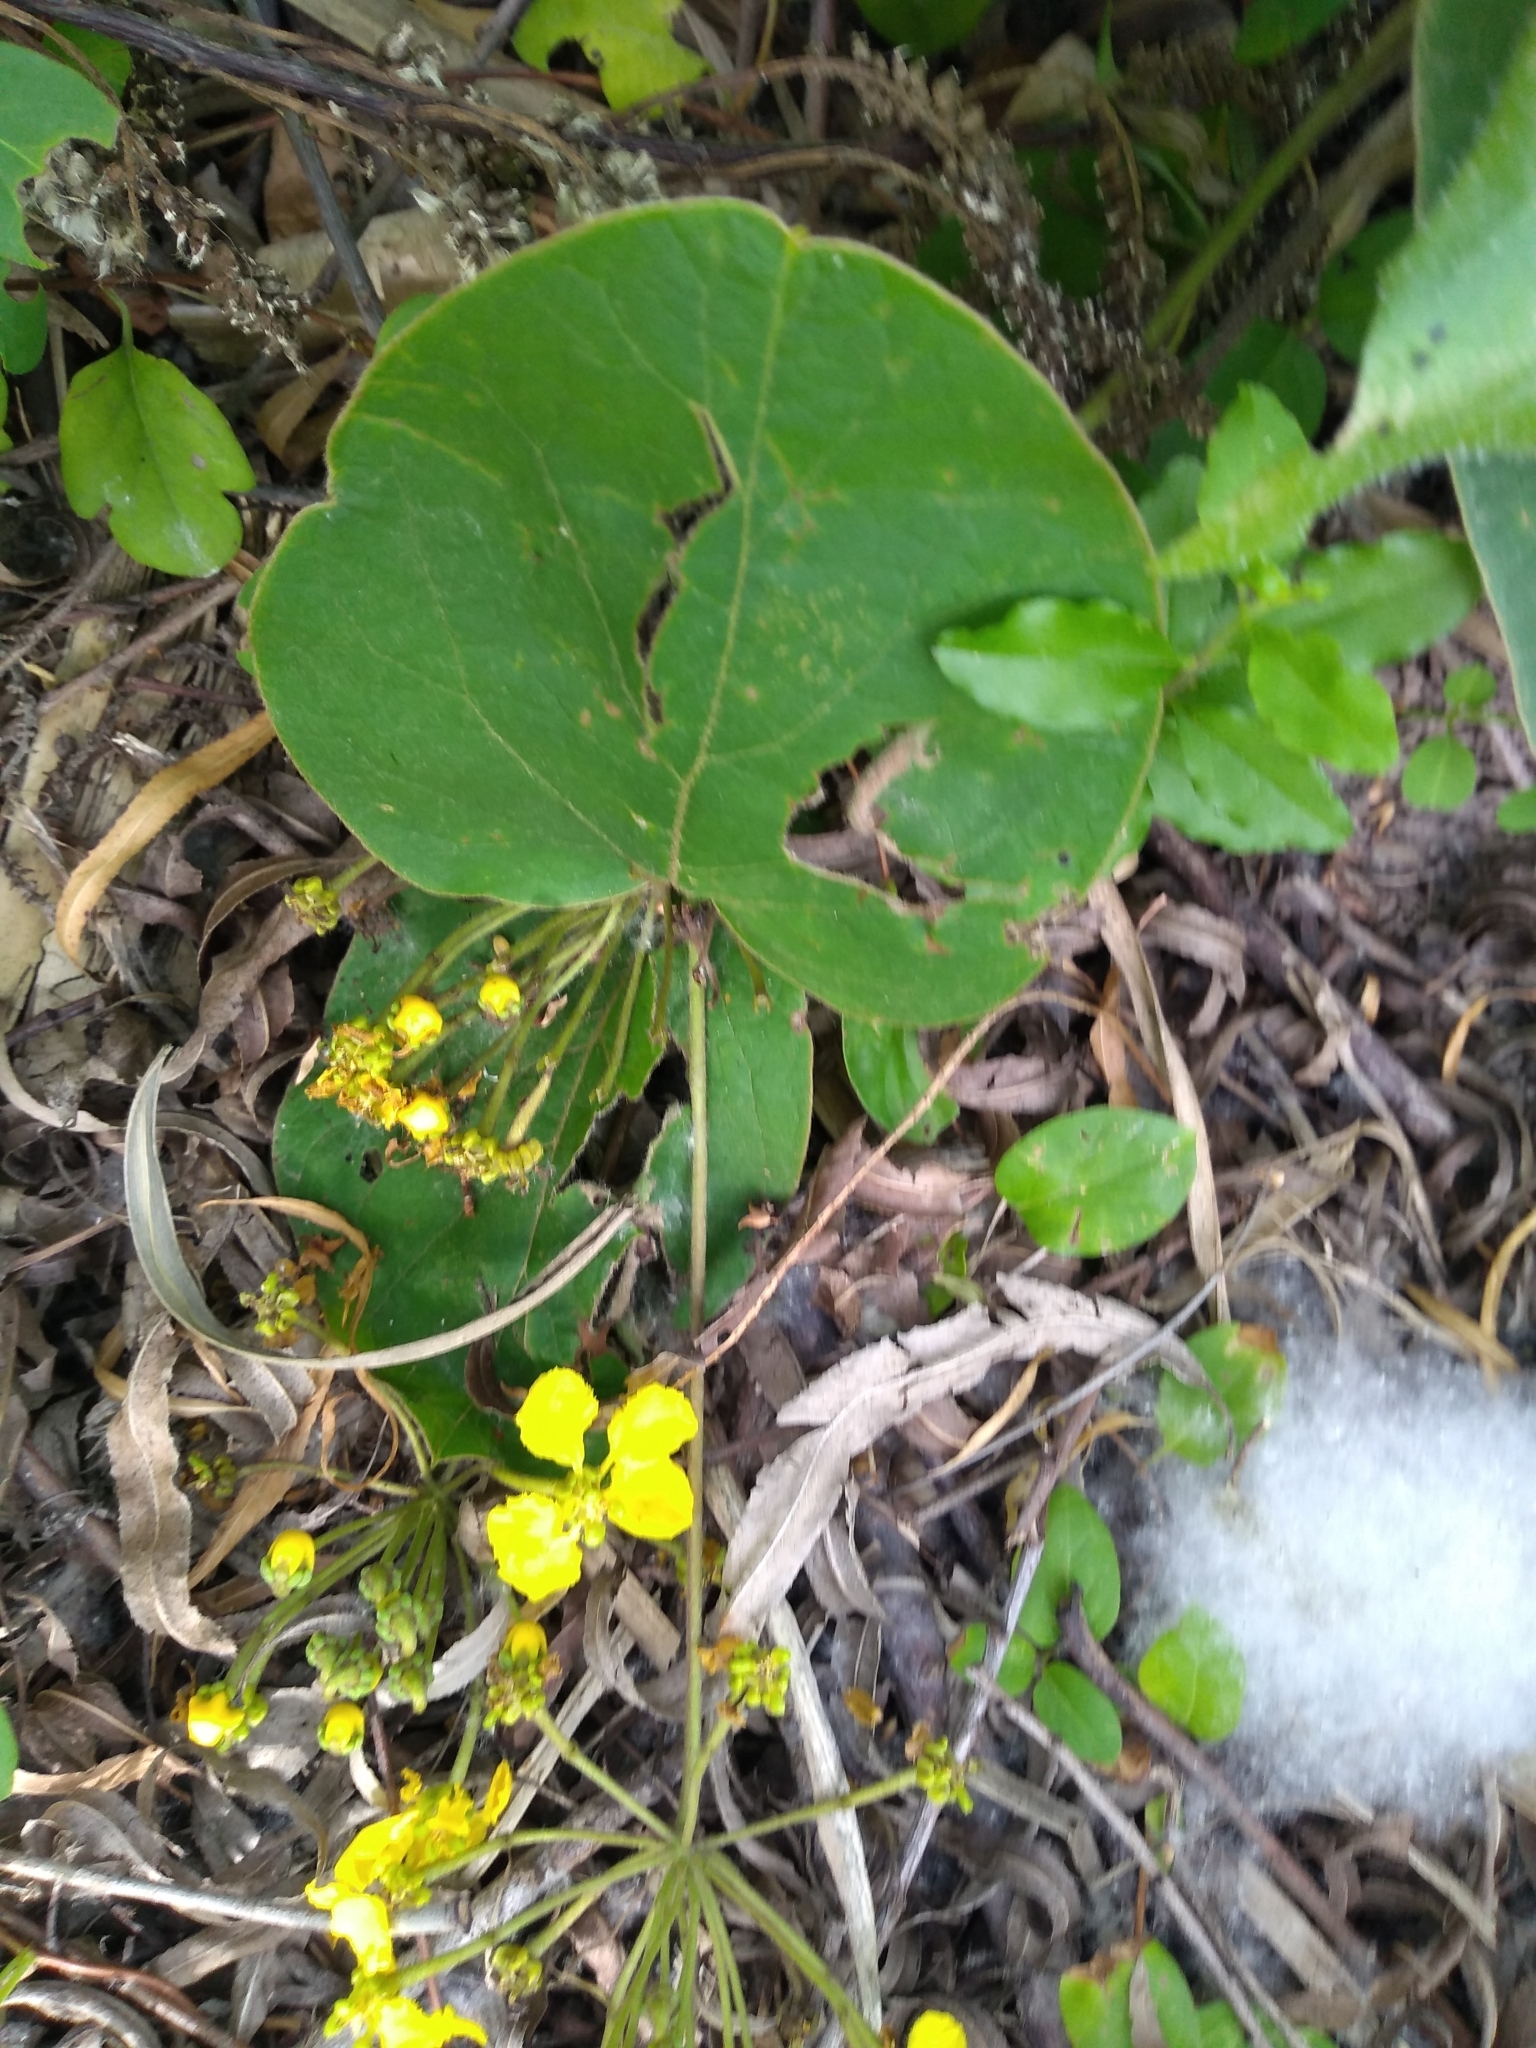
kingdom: Plantae
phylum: Tracheophyta
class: Magnoliopsida
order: Malpighiales
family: Malpighiaceae
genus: Stigmaphyllon
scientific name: Stigmaphyllon bonariense
